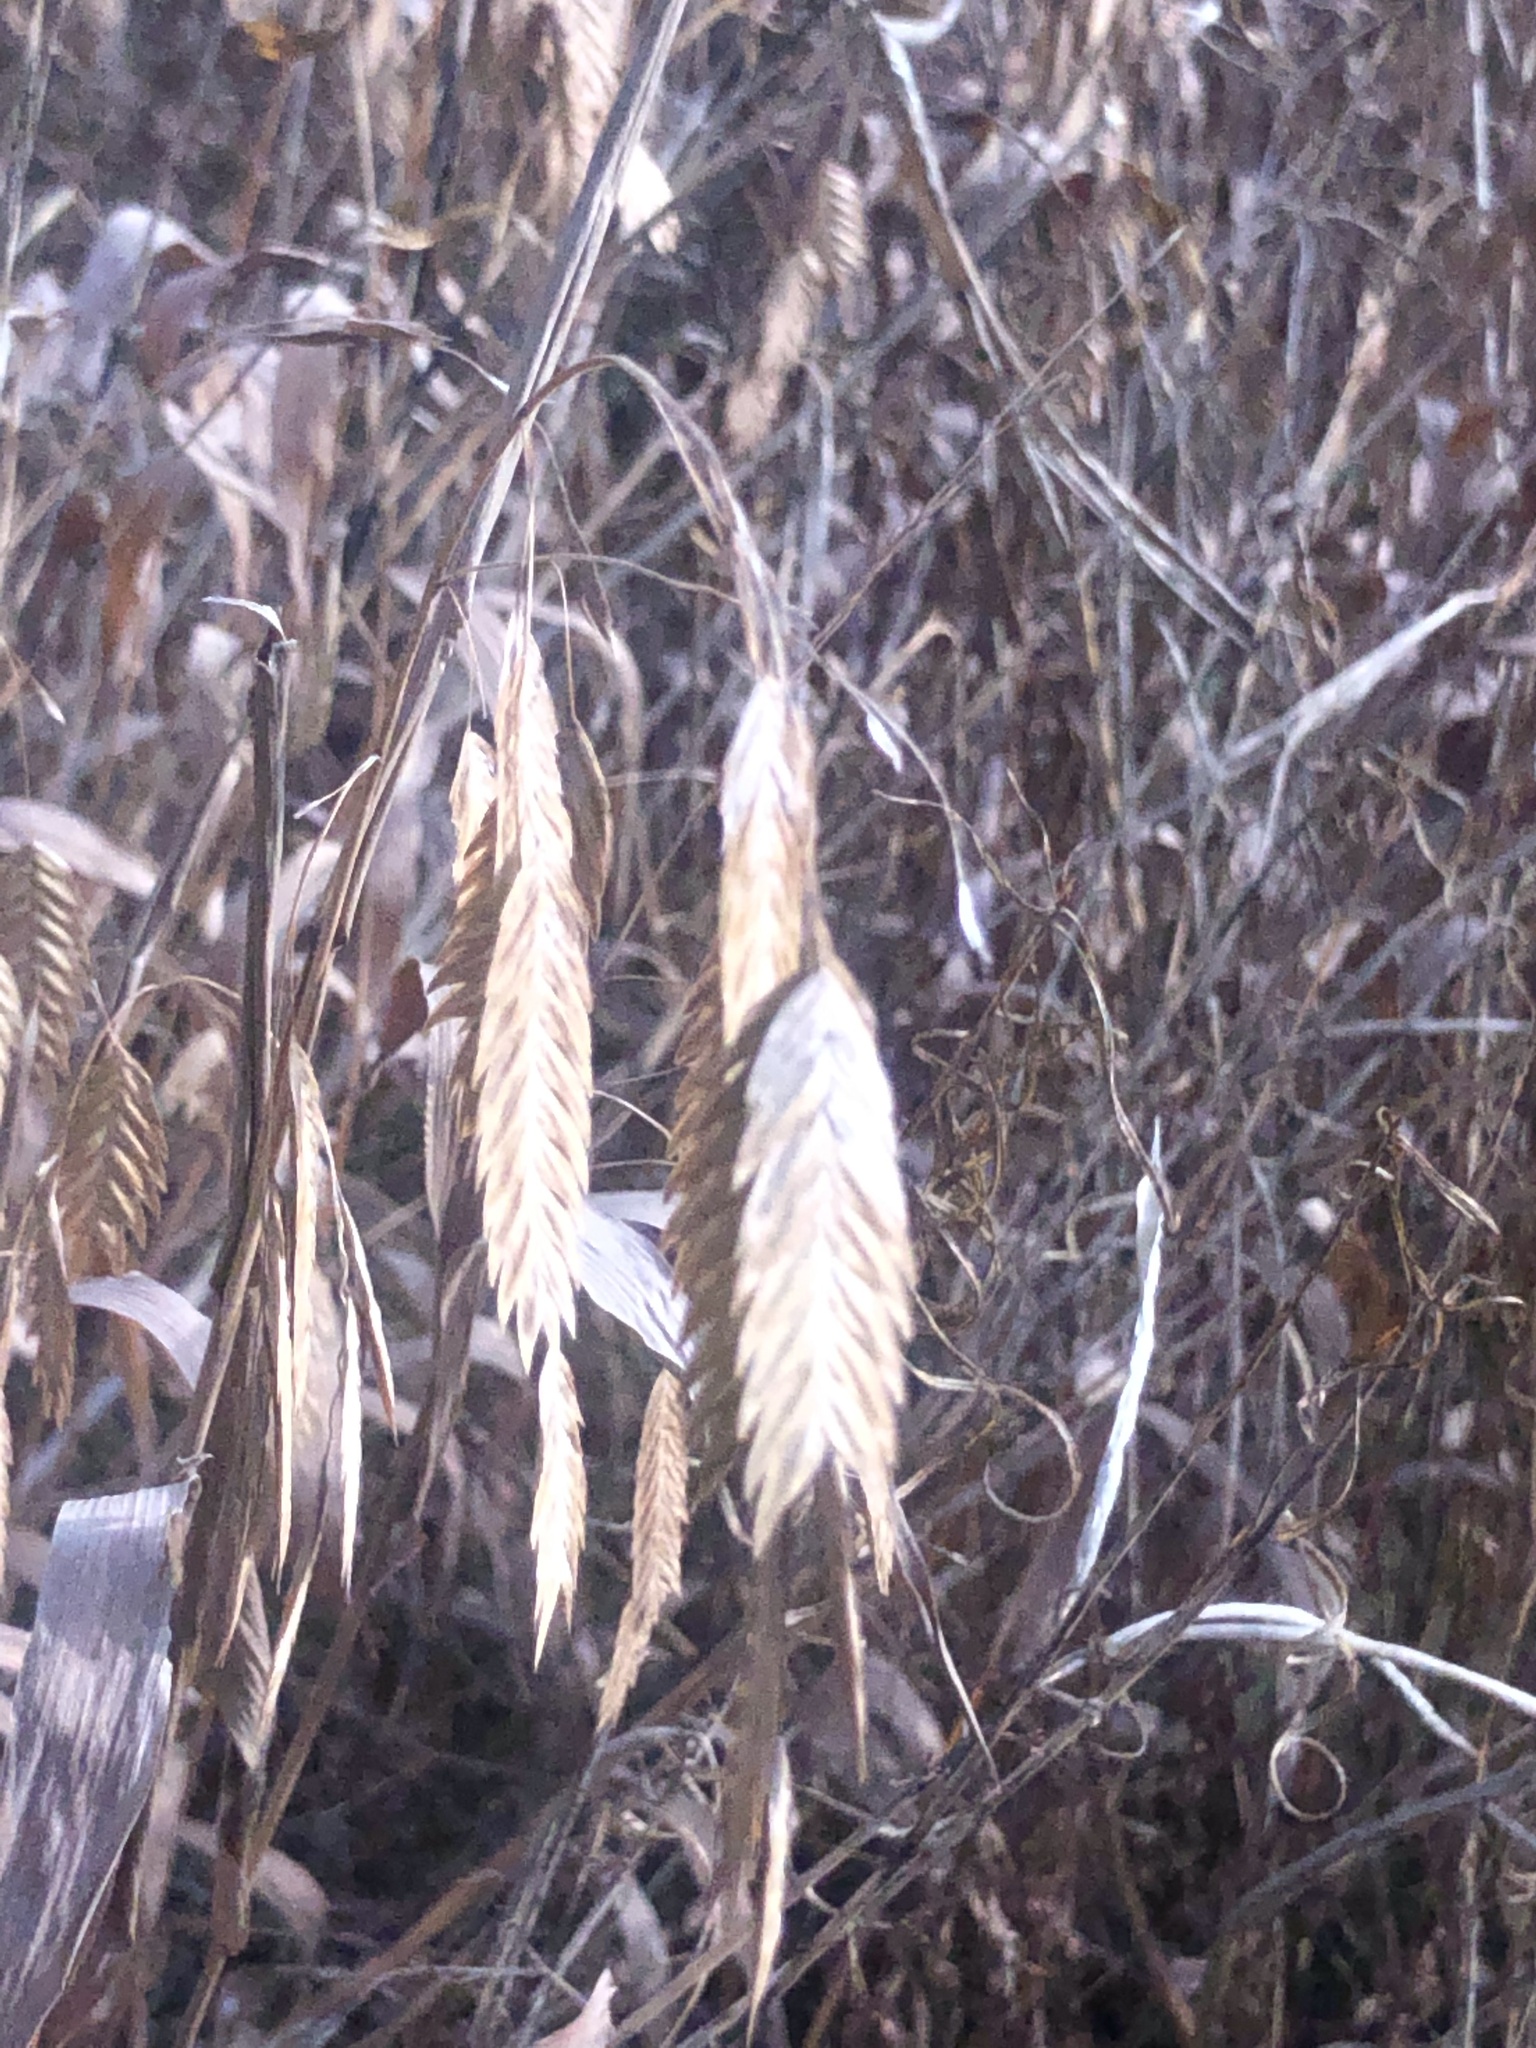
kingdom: Plantae
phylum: Tracheophyta
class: Liliopsida
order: Poales
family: Poaceae
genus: Chasmanthium
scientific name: Chasmanthium latifolium
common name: Broad-leaved chasmanthium
